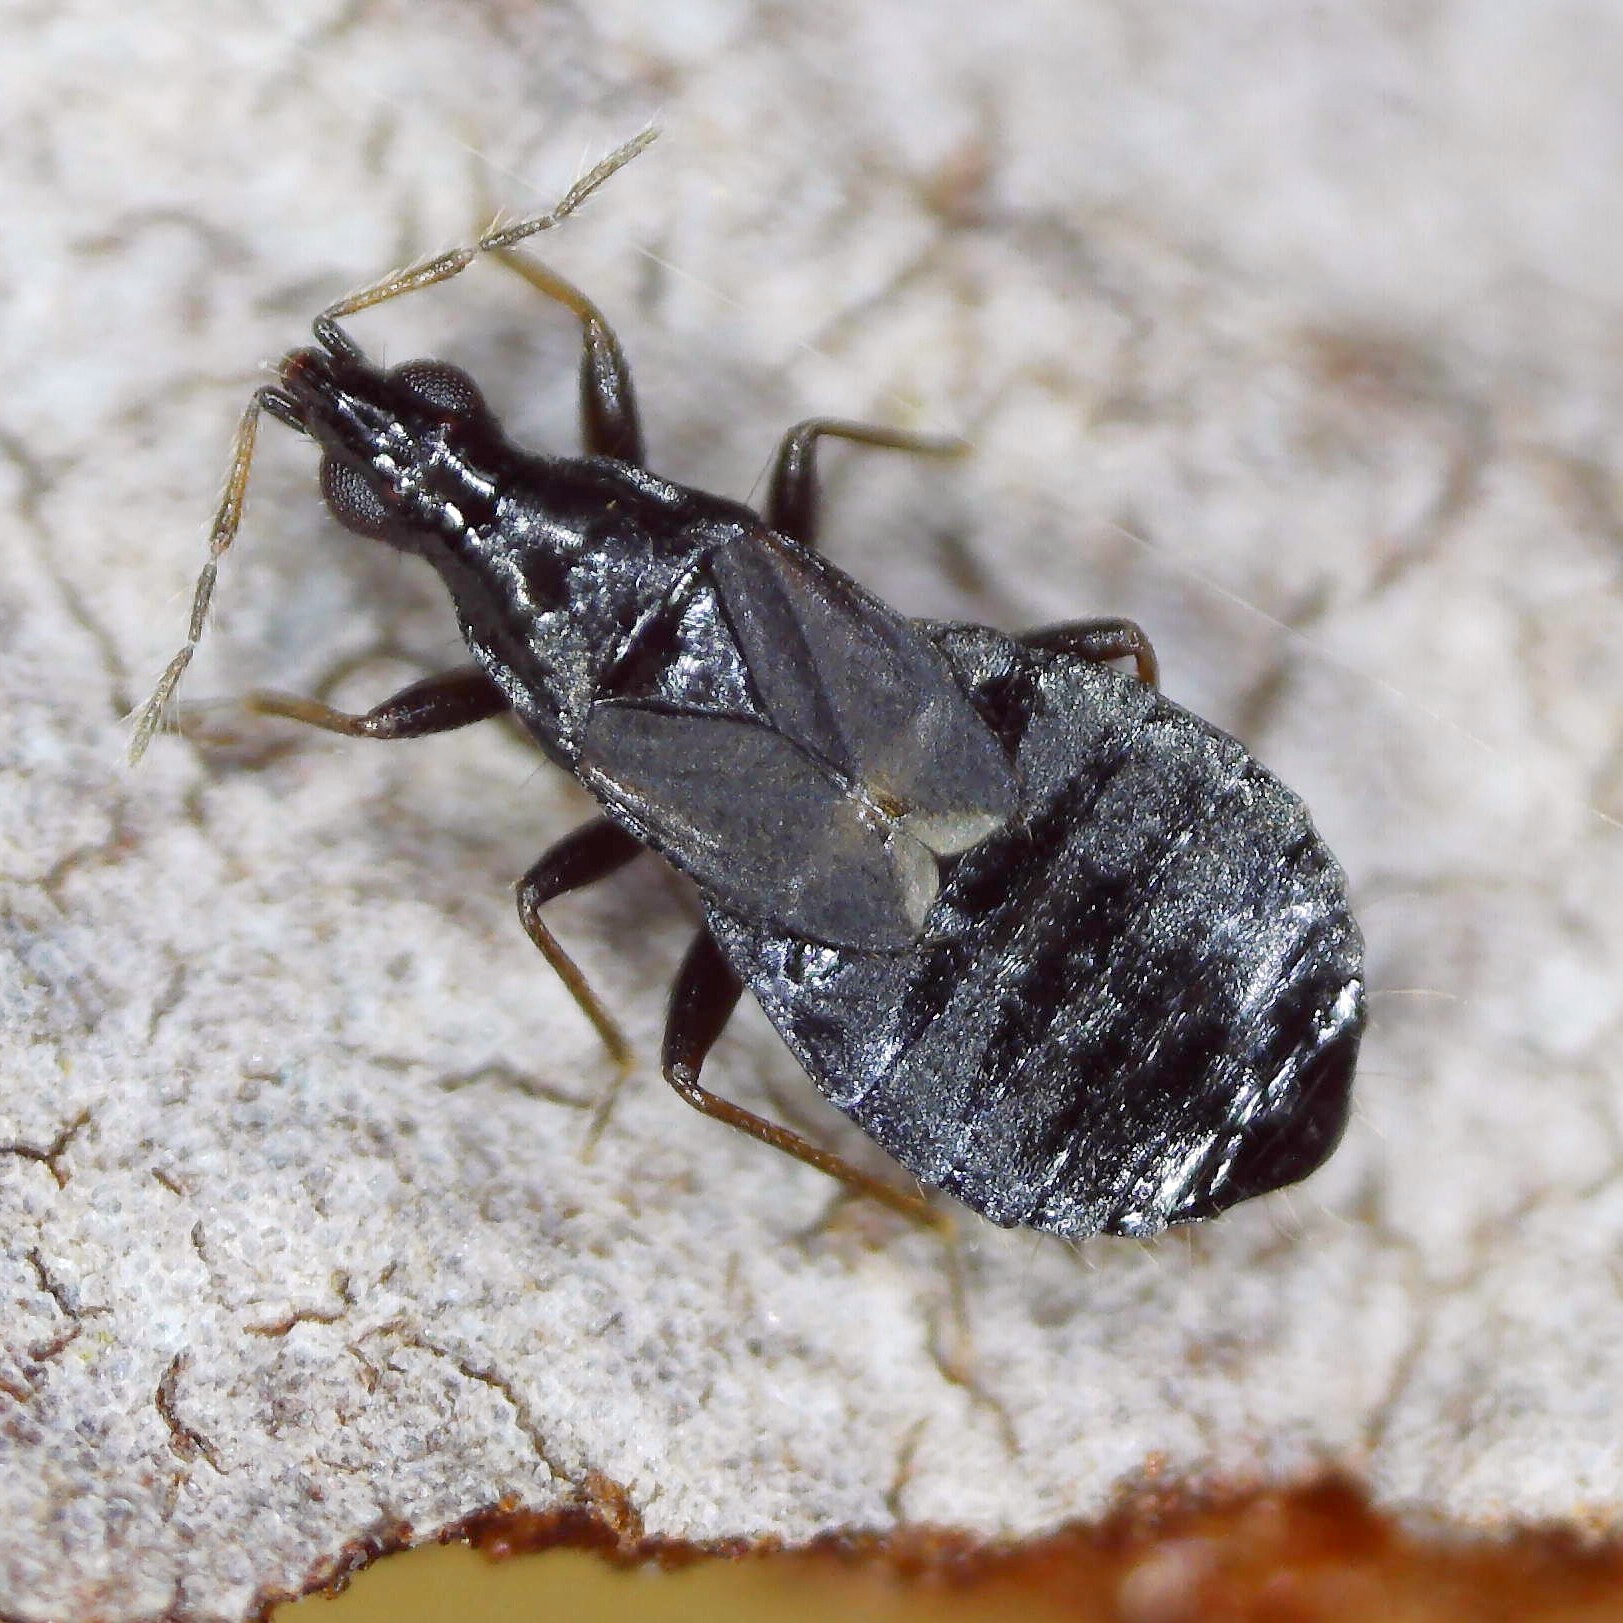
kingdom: Animalia
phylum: Arthropoda
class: Insecta
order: Hemiptera
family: Anthocoridae
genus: Xylocoridea
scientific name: Xylocoridea brevipennis
